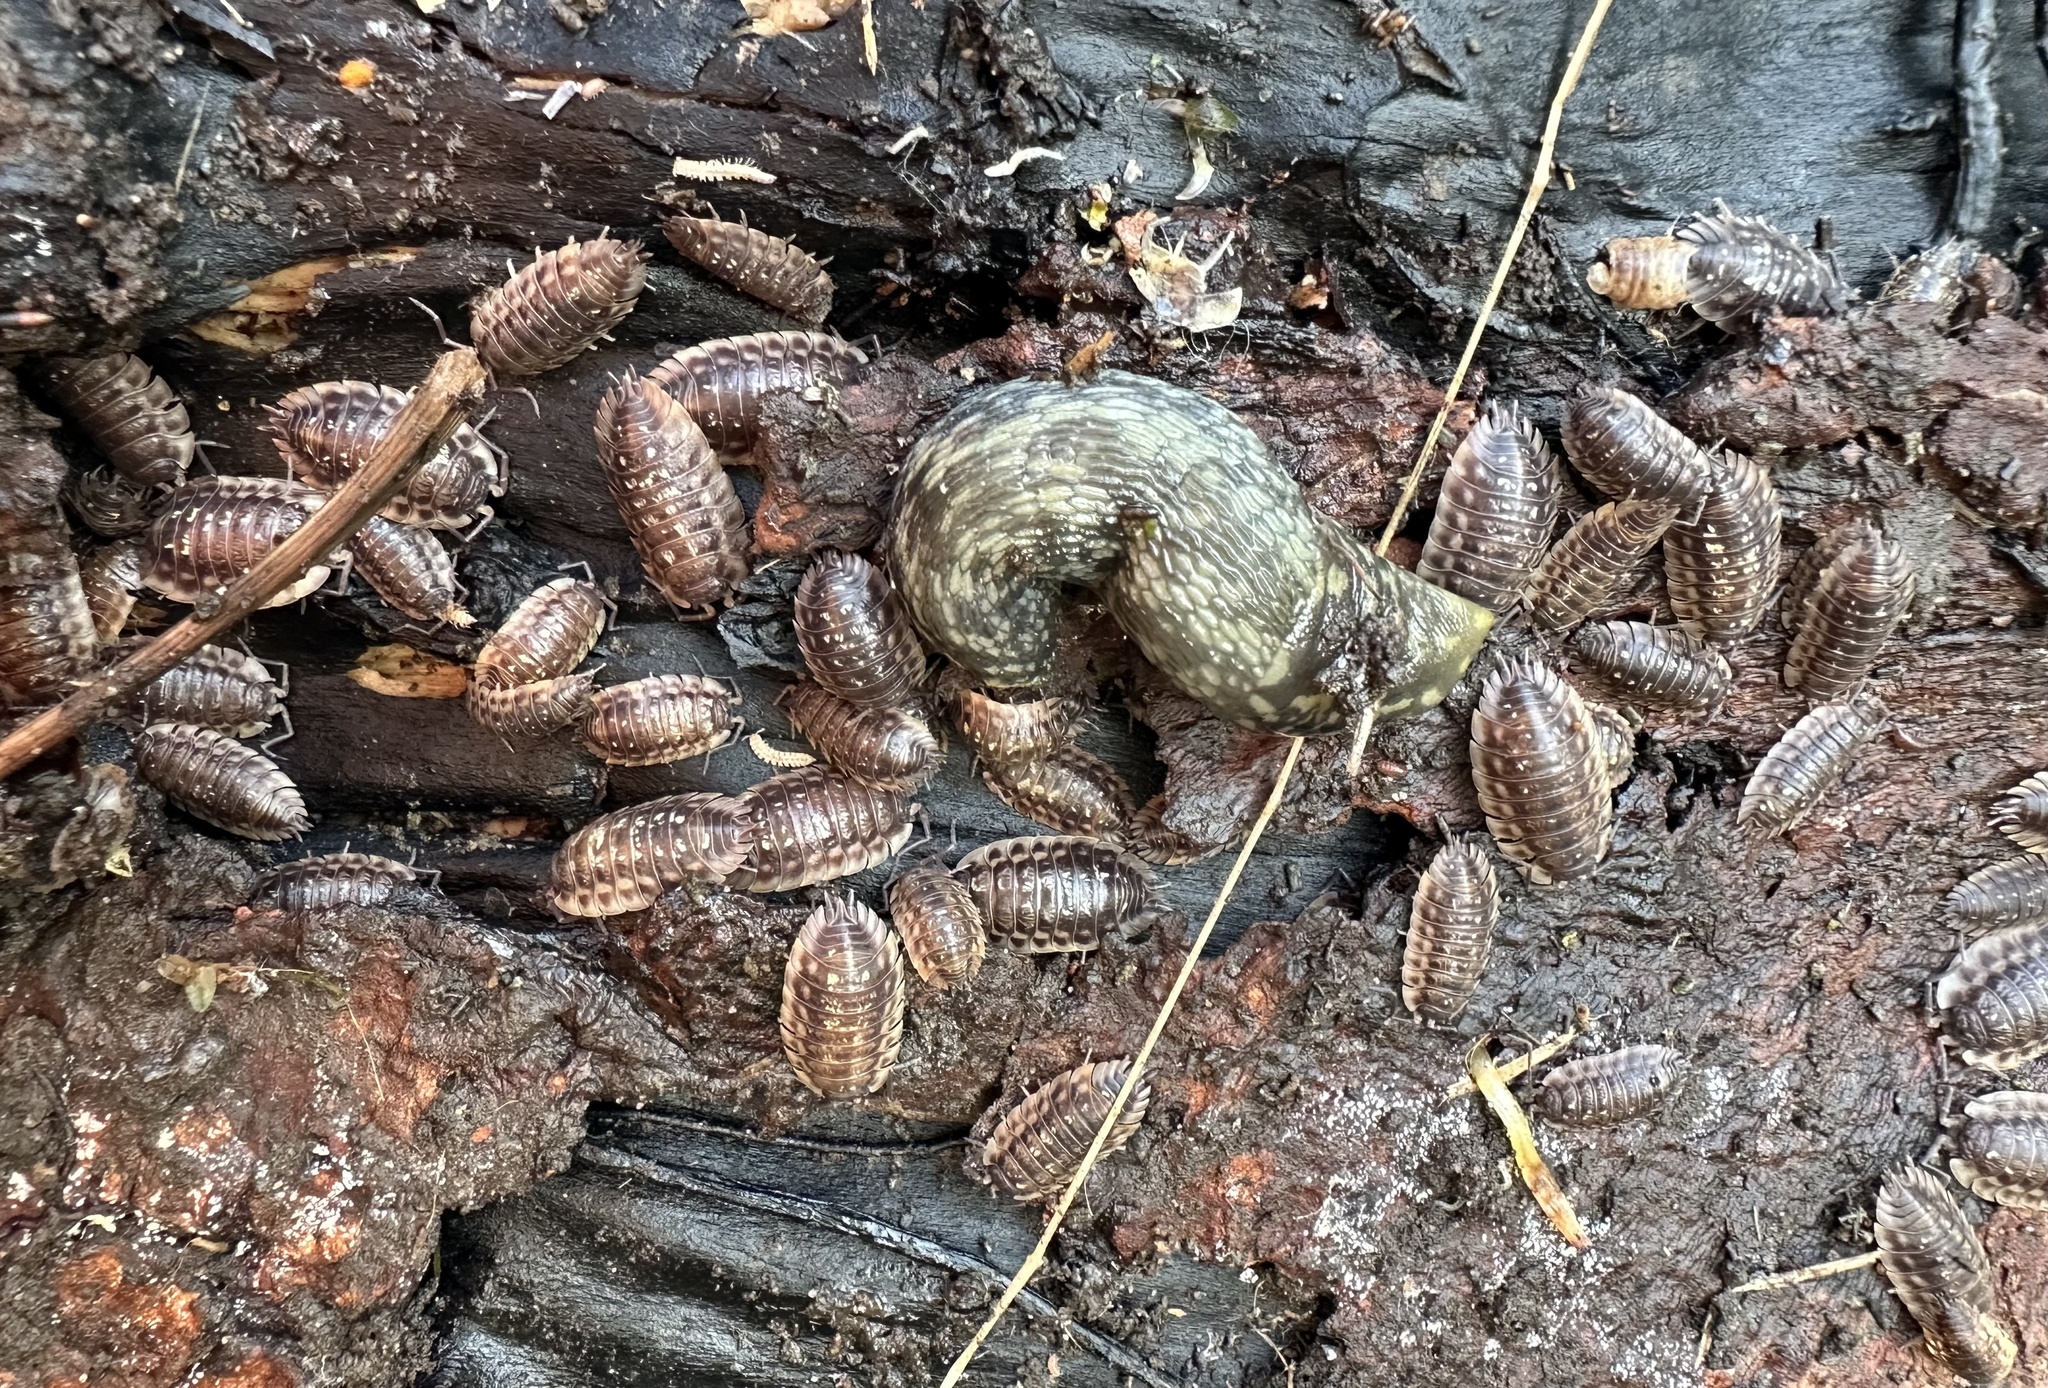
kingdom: Animalia
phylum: Arthropoda
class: Malacostraca
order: Isopoda
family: Oniscidae
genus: Oniscus
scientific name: Oniscus asellus
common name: Common shiny woodlouse
